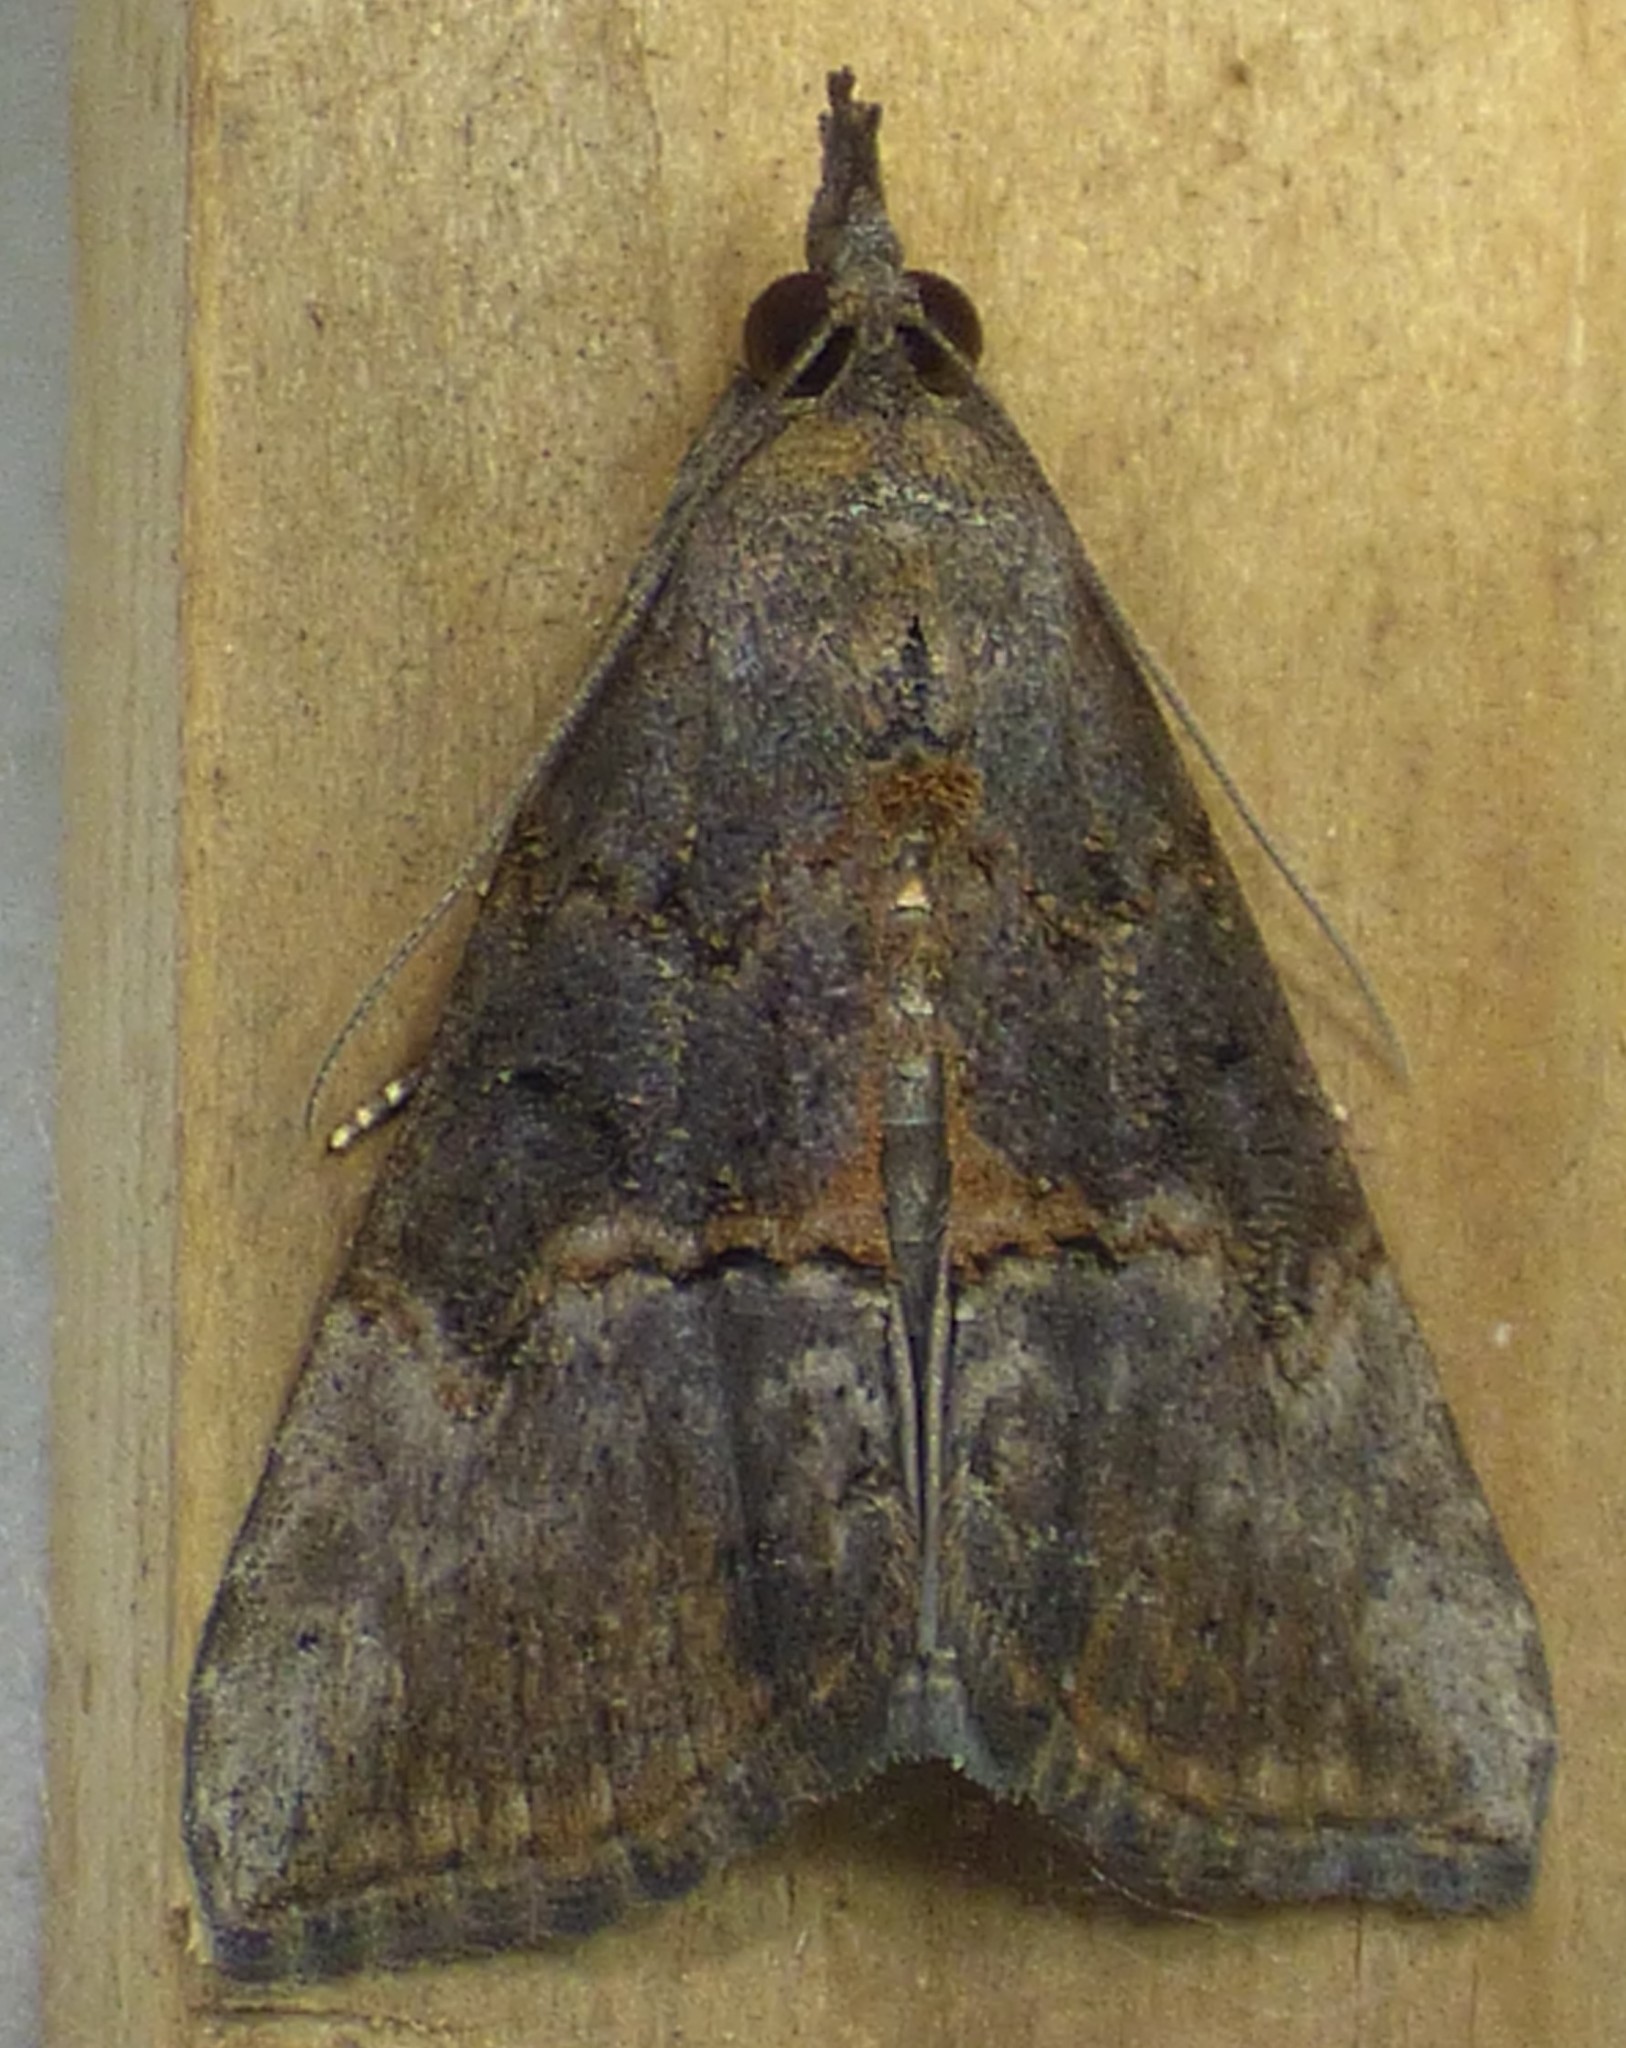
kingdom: Animalia
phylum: Arthropoda
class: Insecta
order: Lepidoptera
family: Erebidae
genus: Hypena
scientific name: Hypena scabra
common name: Green cloverworm
